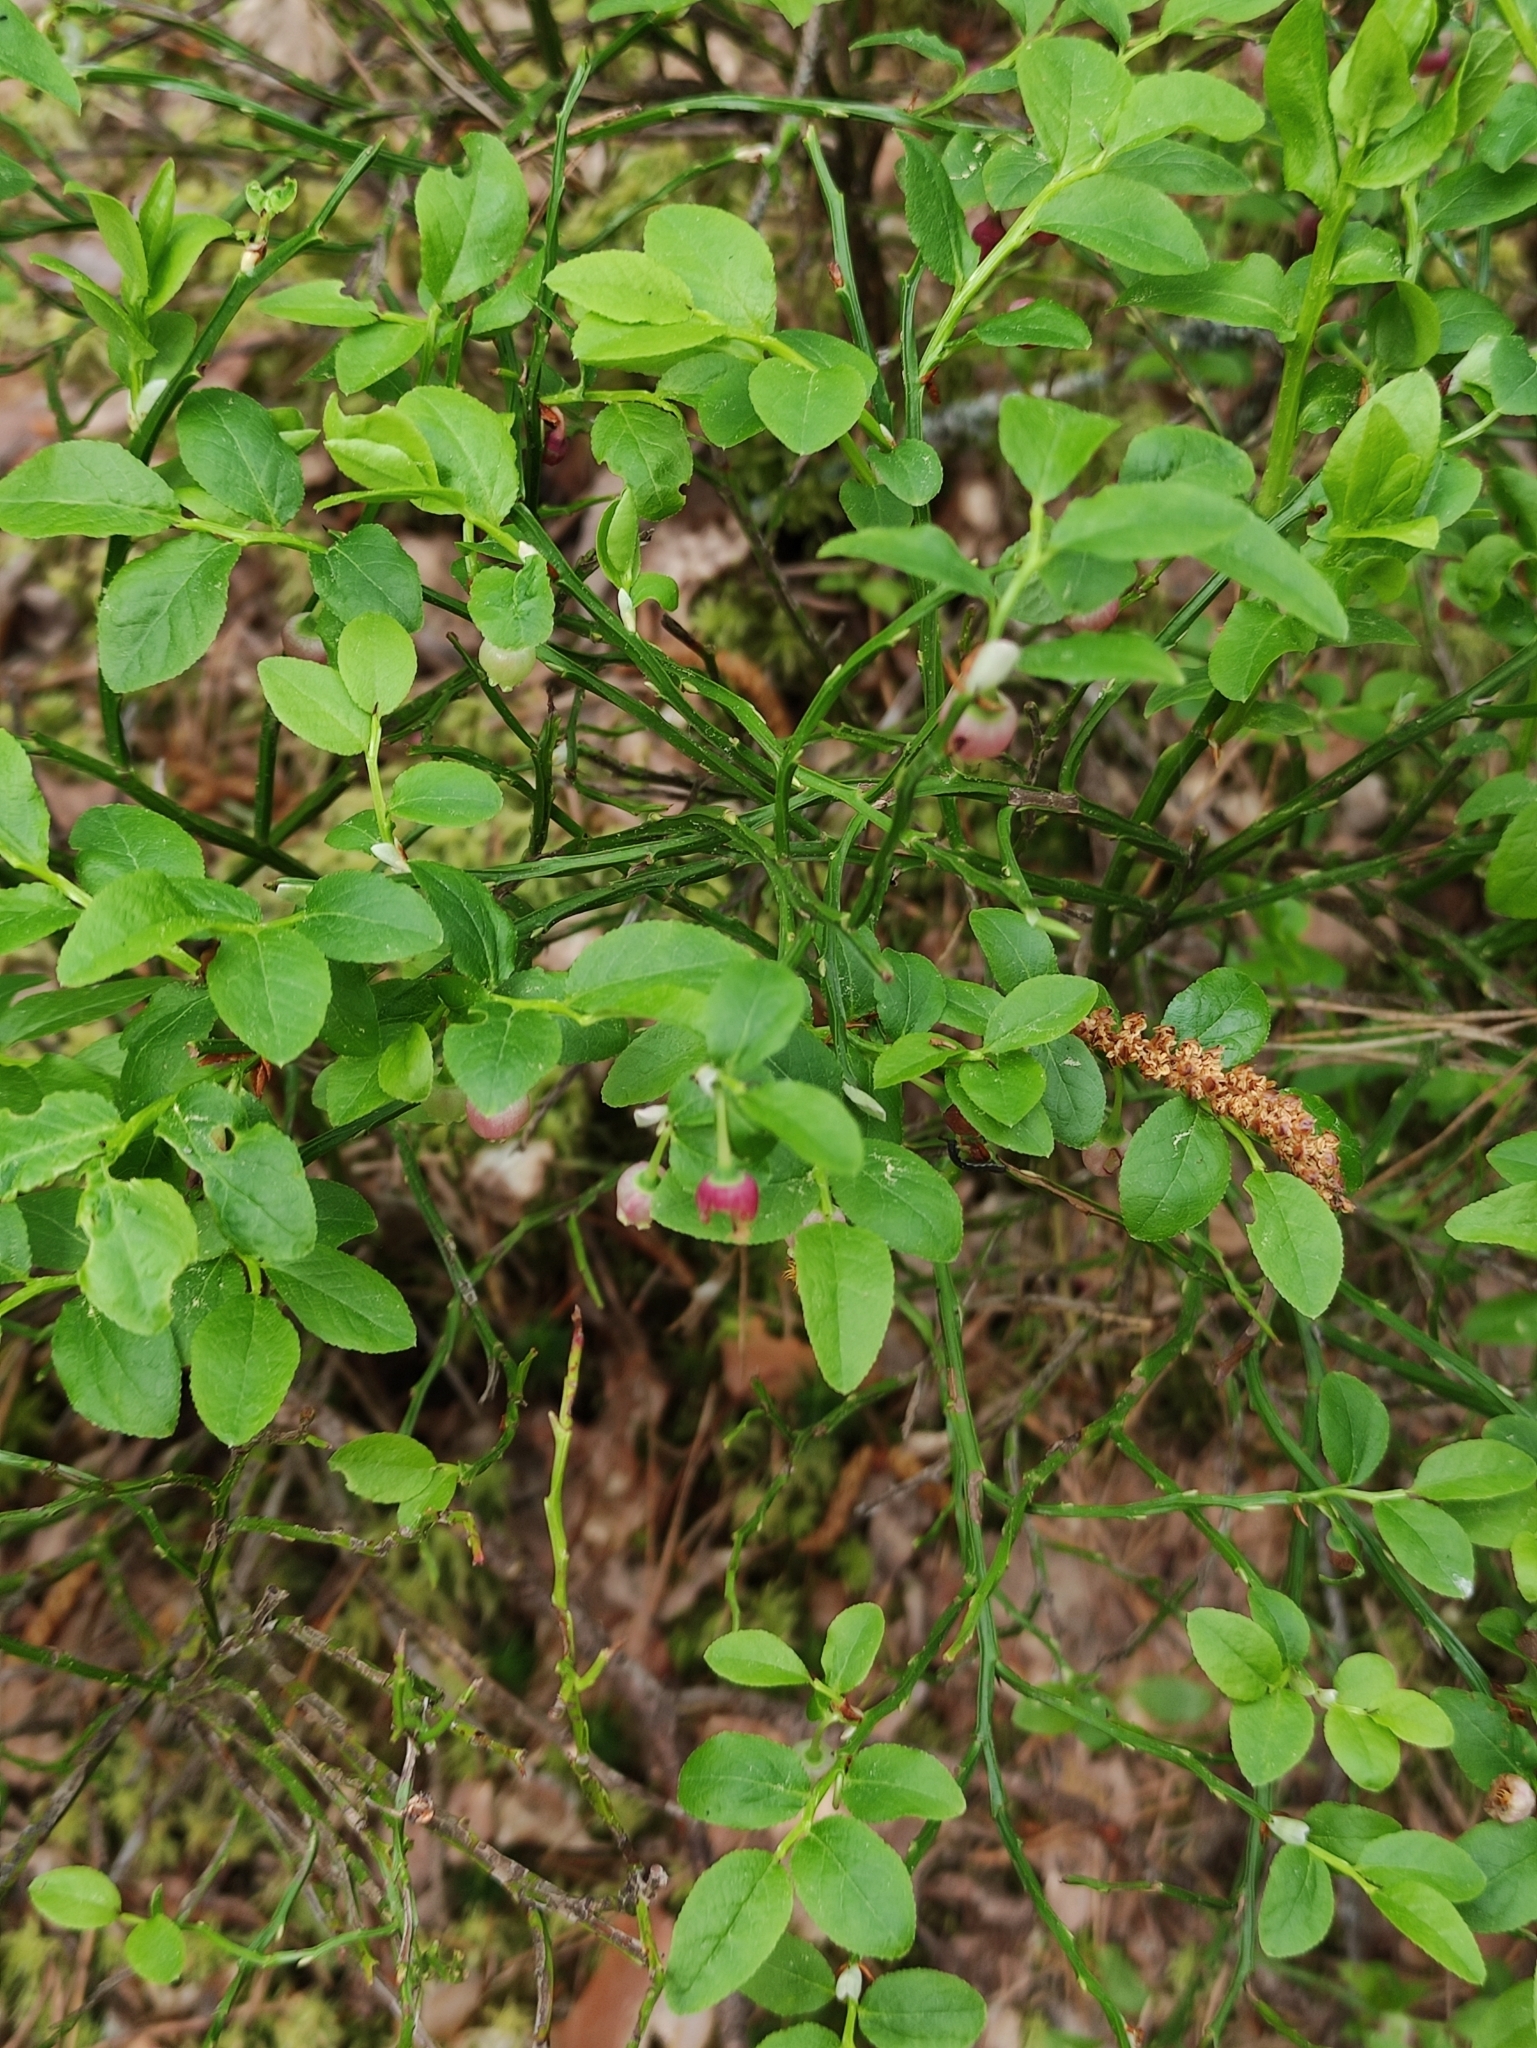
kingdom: Plantae
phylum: Tracheophyta
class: Magnoliopsida
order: Ericales
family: Ericaceae
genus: Vaccinium
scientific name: Vaccinium myrtillus
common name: Bilberry
